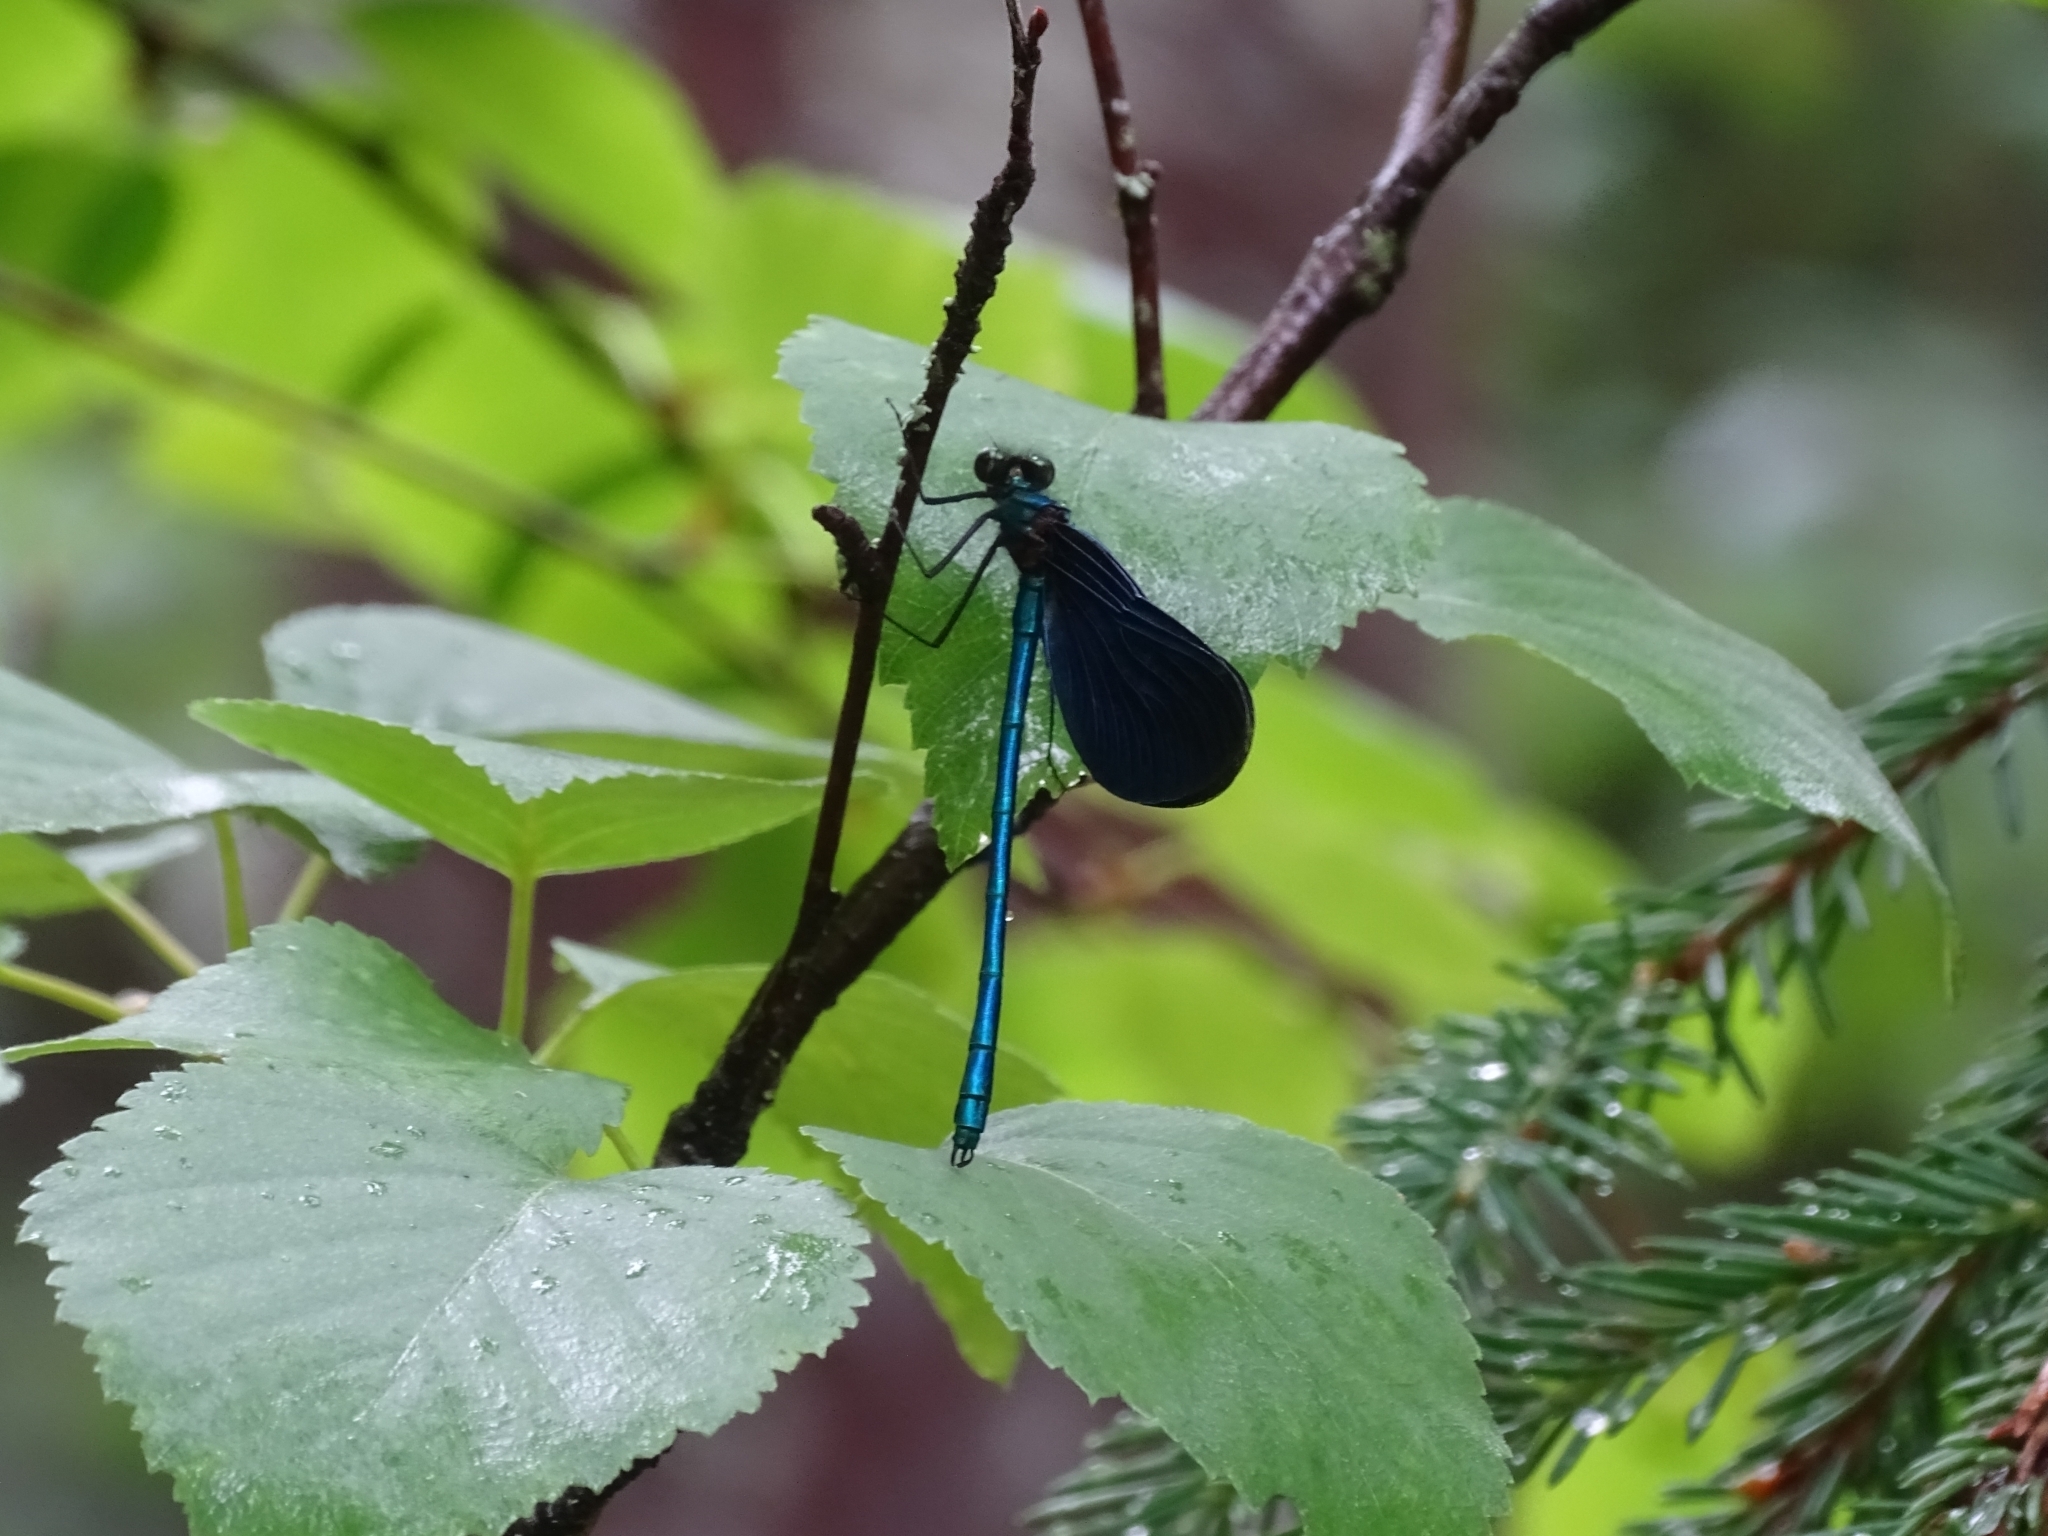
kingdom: Animalia
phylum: Arthropoda
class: Insecta
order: Odonata
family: Calopterygidae
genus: Calopteryx
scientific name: Calopteryx virgo
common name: Beautiful demoiselle
